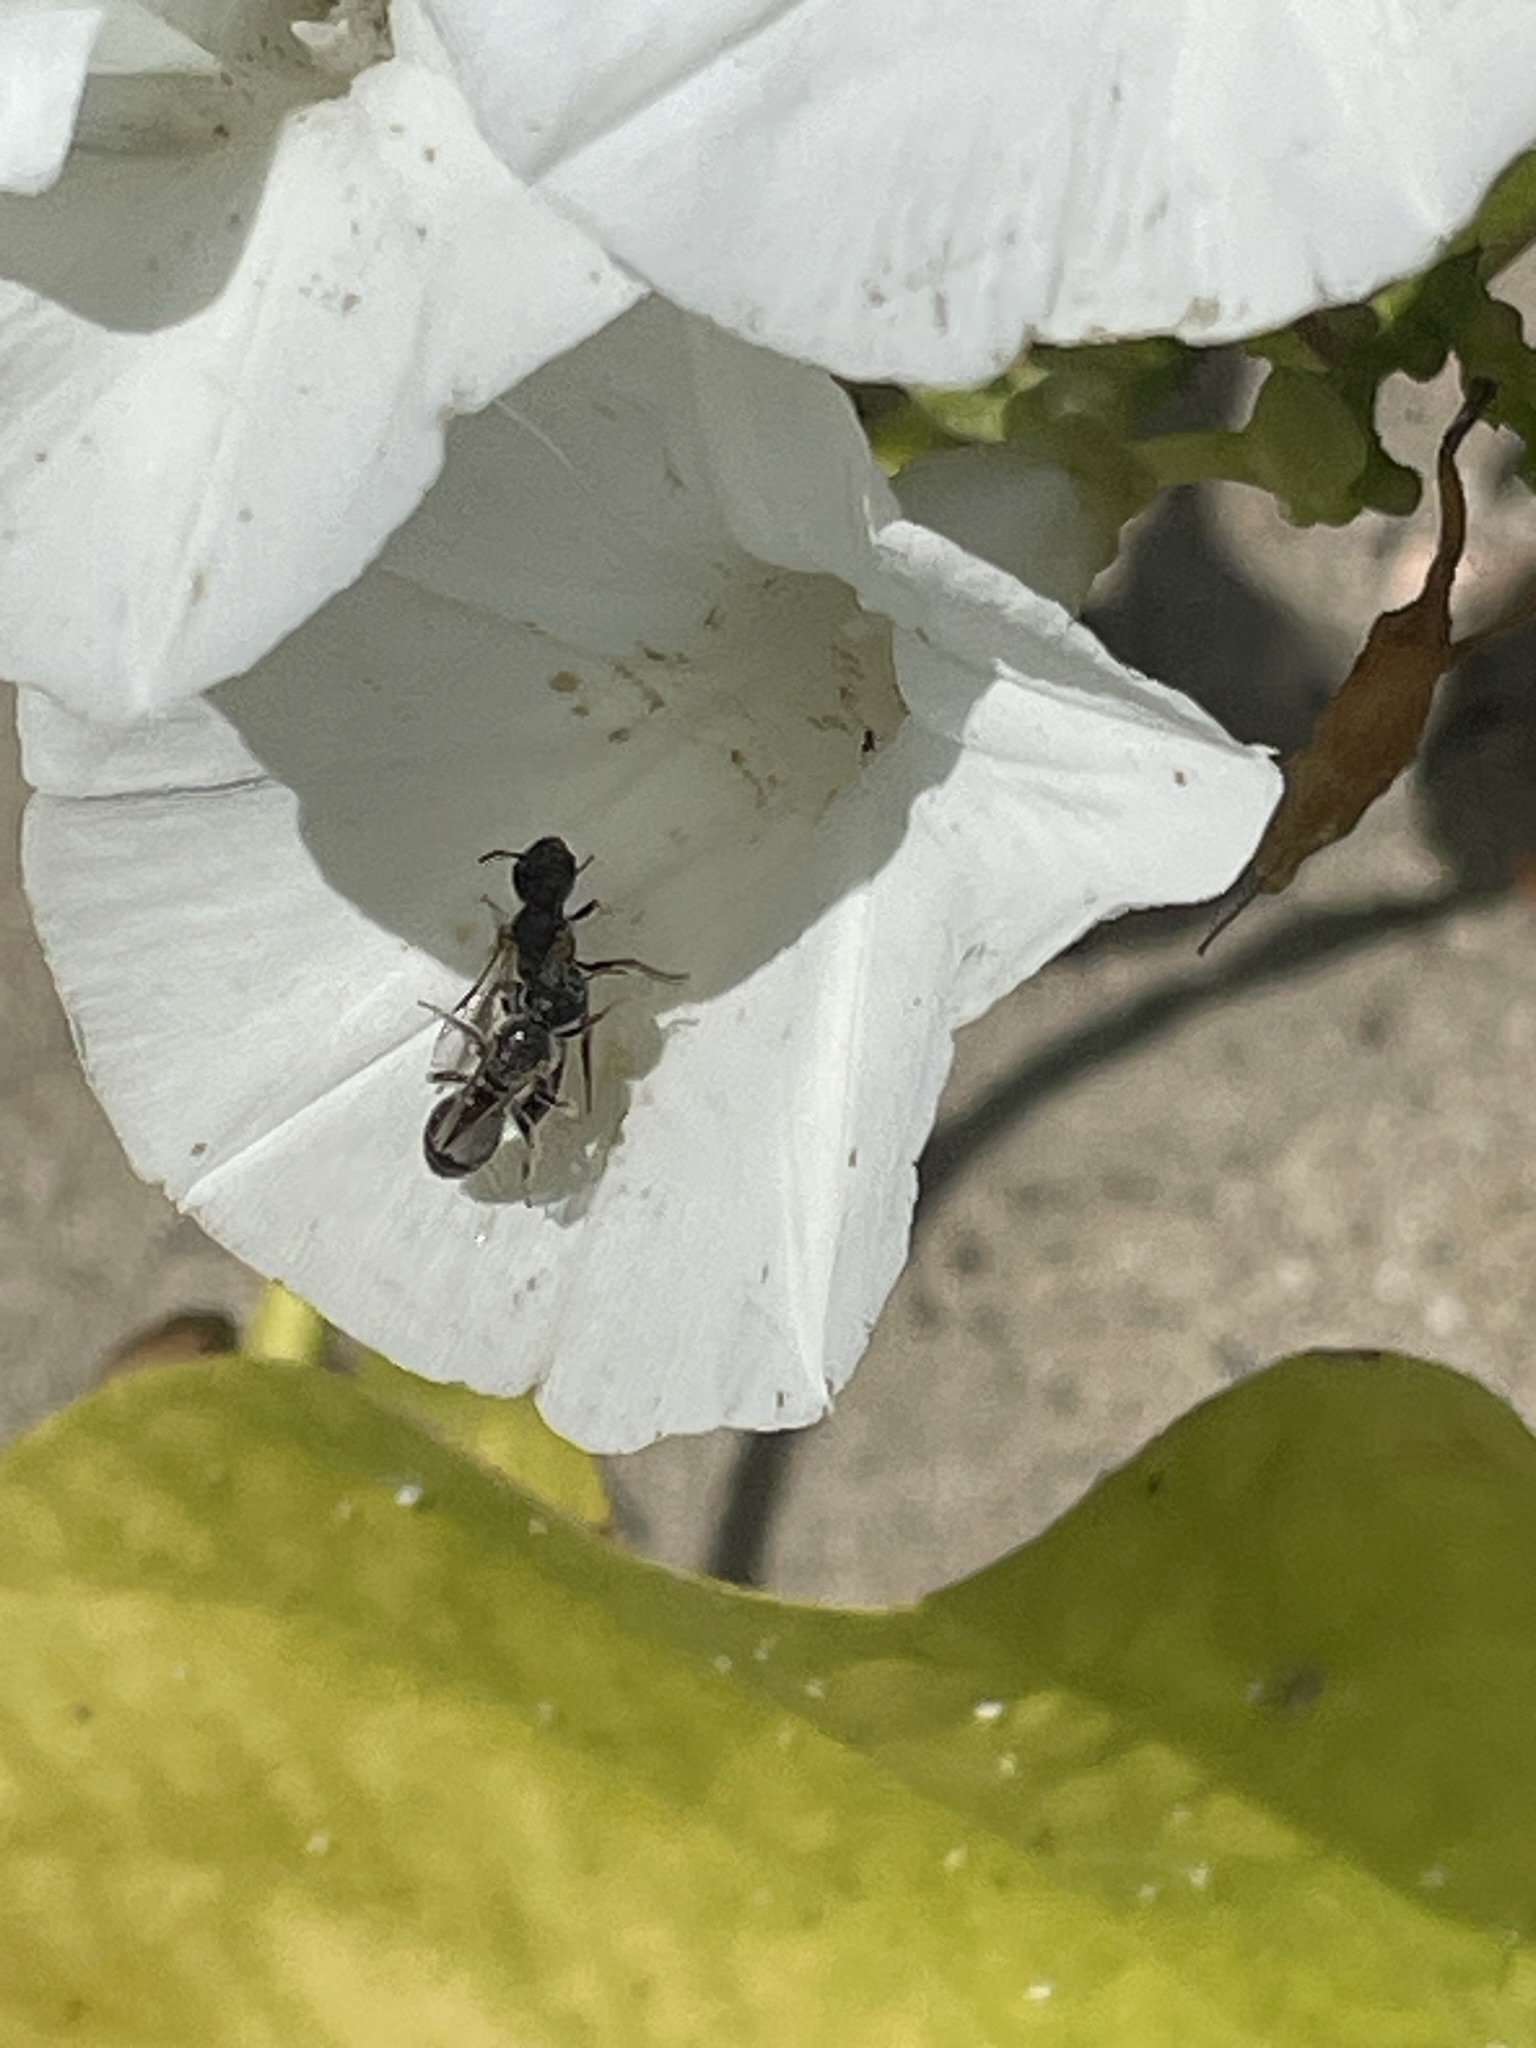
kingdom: Animalia
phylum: Arthropoda
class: Insecta
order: Hymenoptera
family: Halictidae
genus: Goeletapis
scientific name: Goeletapis peruensis
